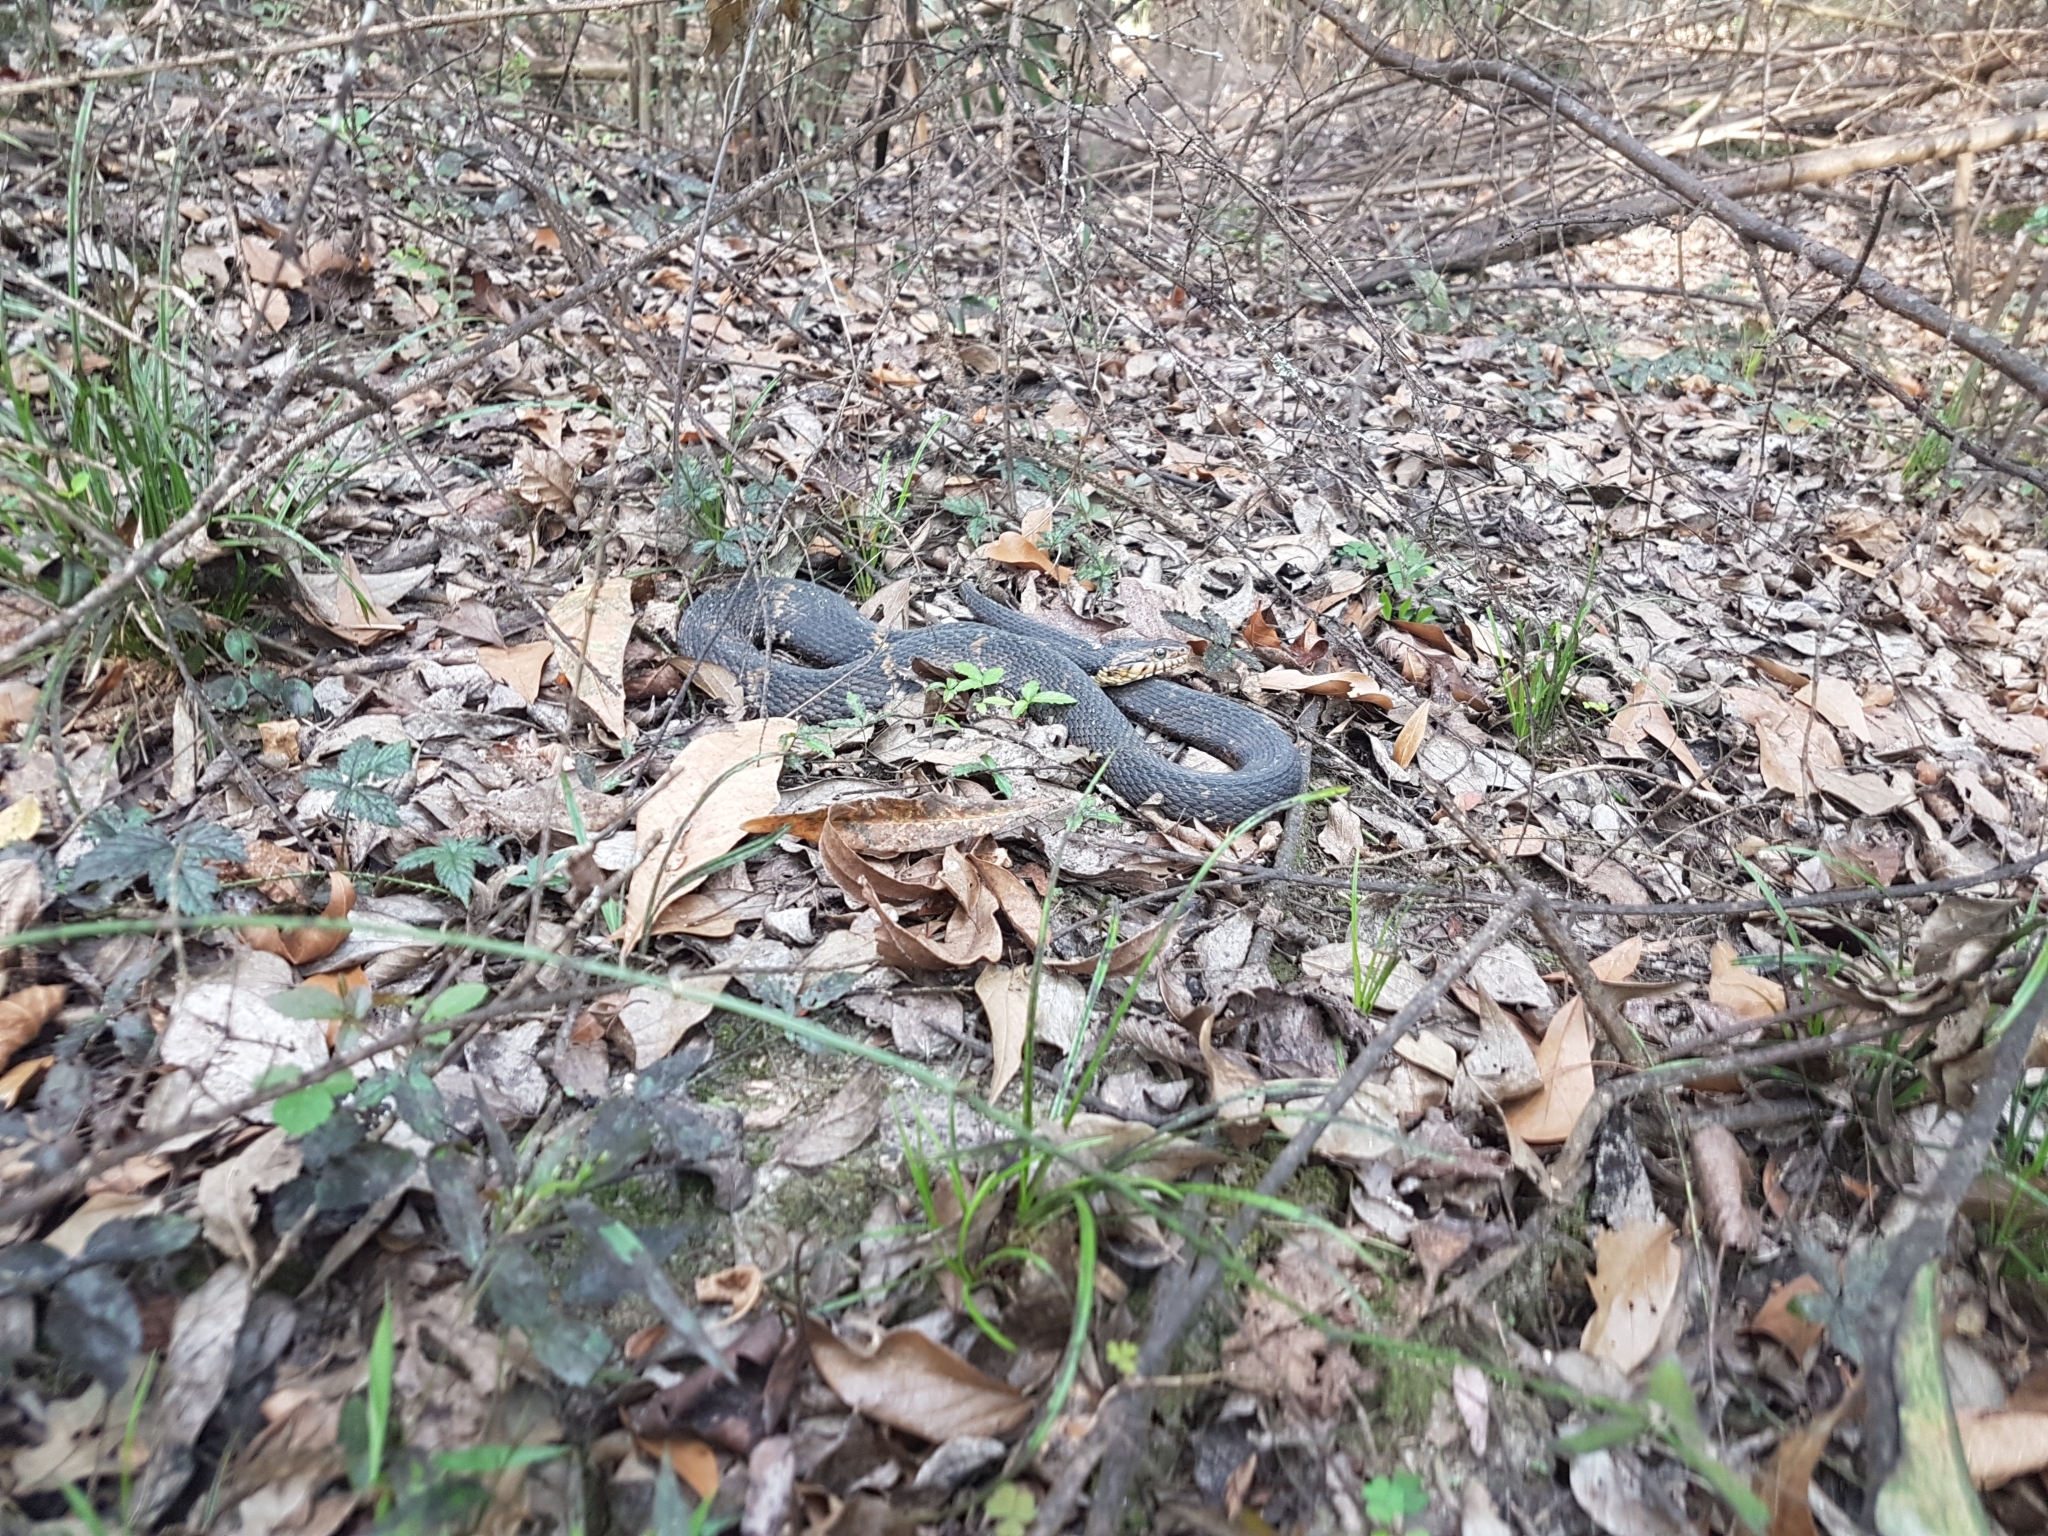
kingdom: Animalia
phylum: Chordata
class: Squamata
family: Colubridae
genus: Nerodia
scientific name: Nerodia fasciata
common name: Southern water snake
